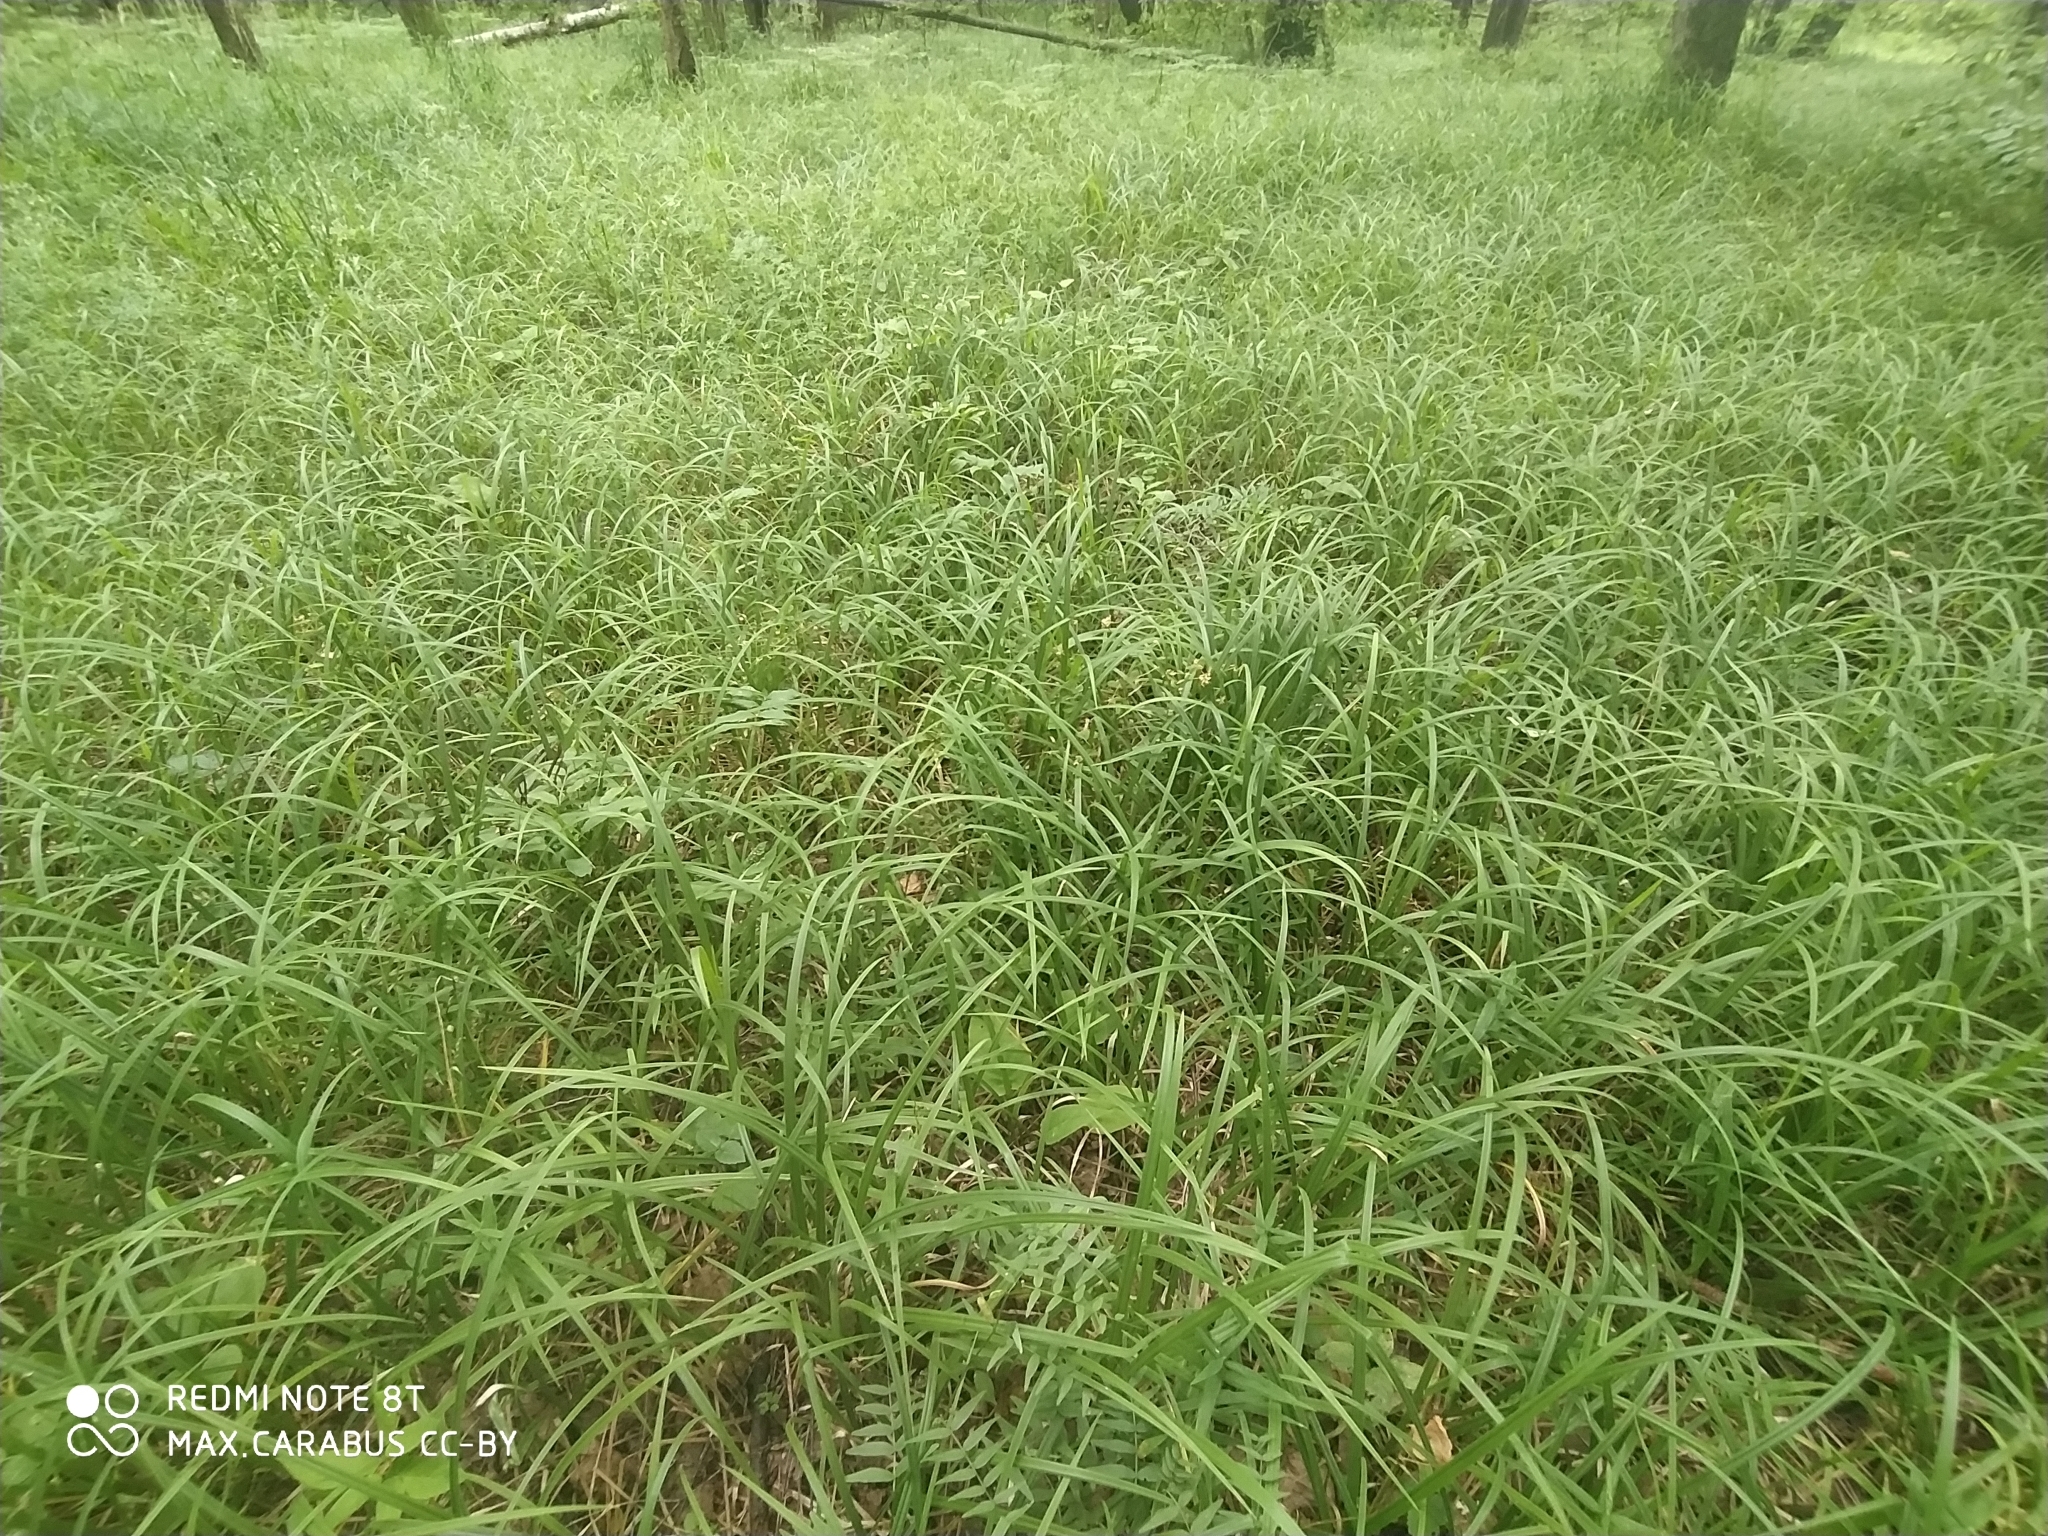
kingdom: Plantae
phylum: Tracheophyta
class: Liliopsida
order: Poales
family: Cyperaceae
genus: Carex
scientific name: Carex pilosa
